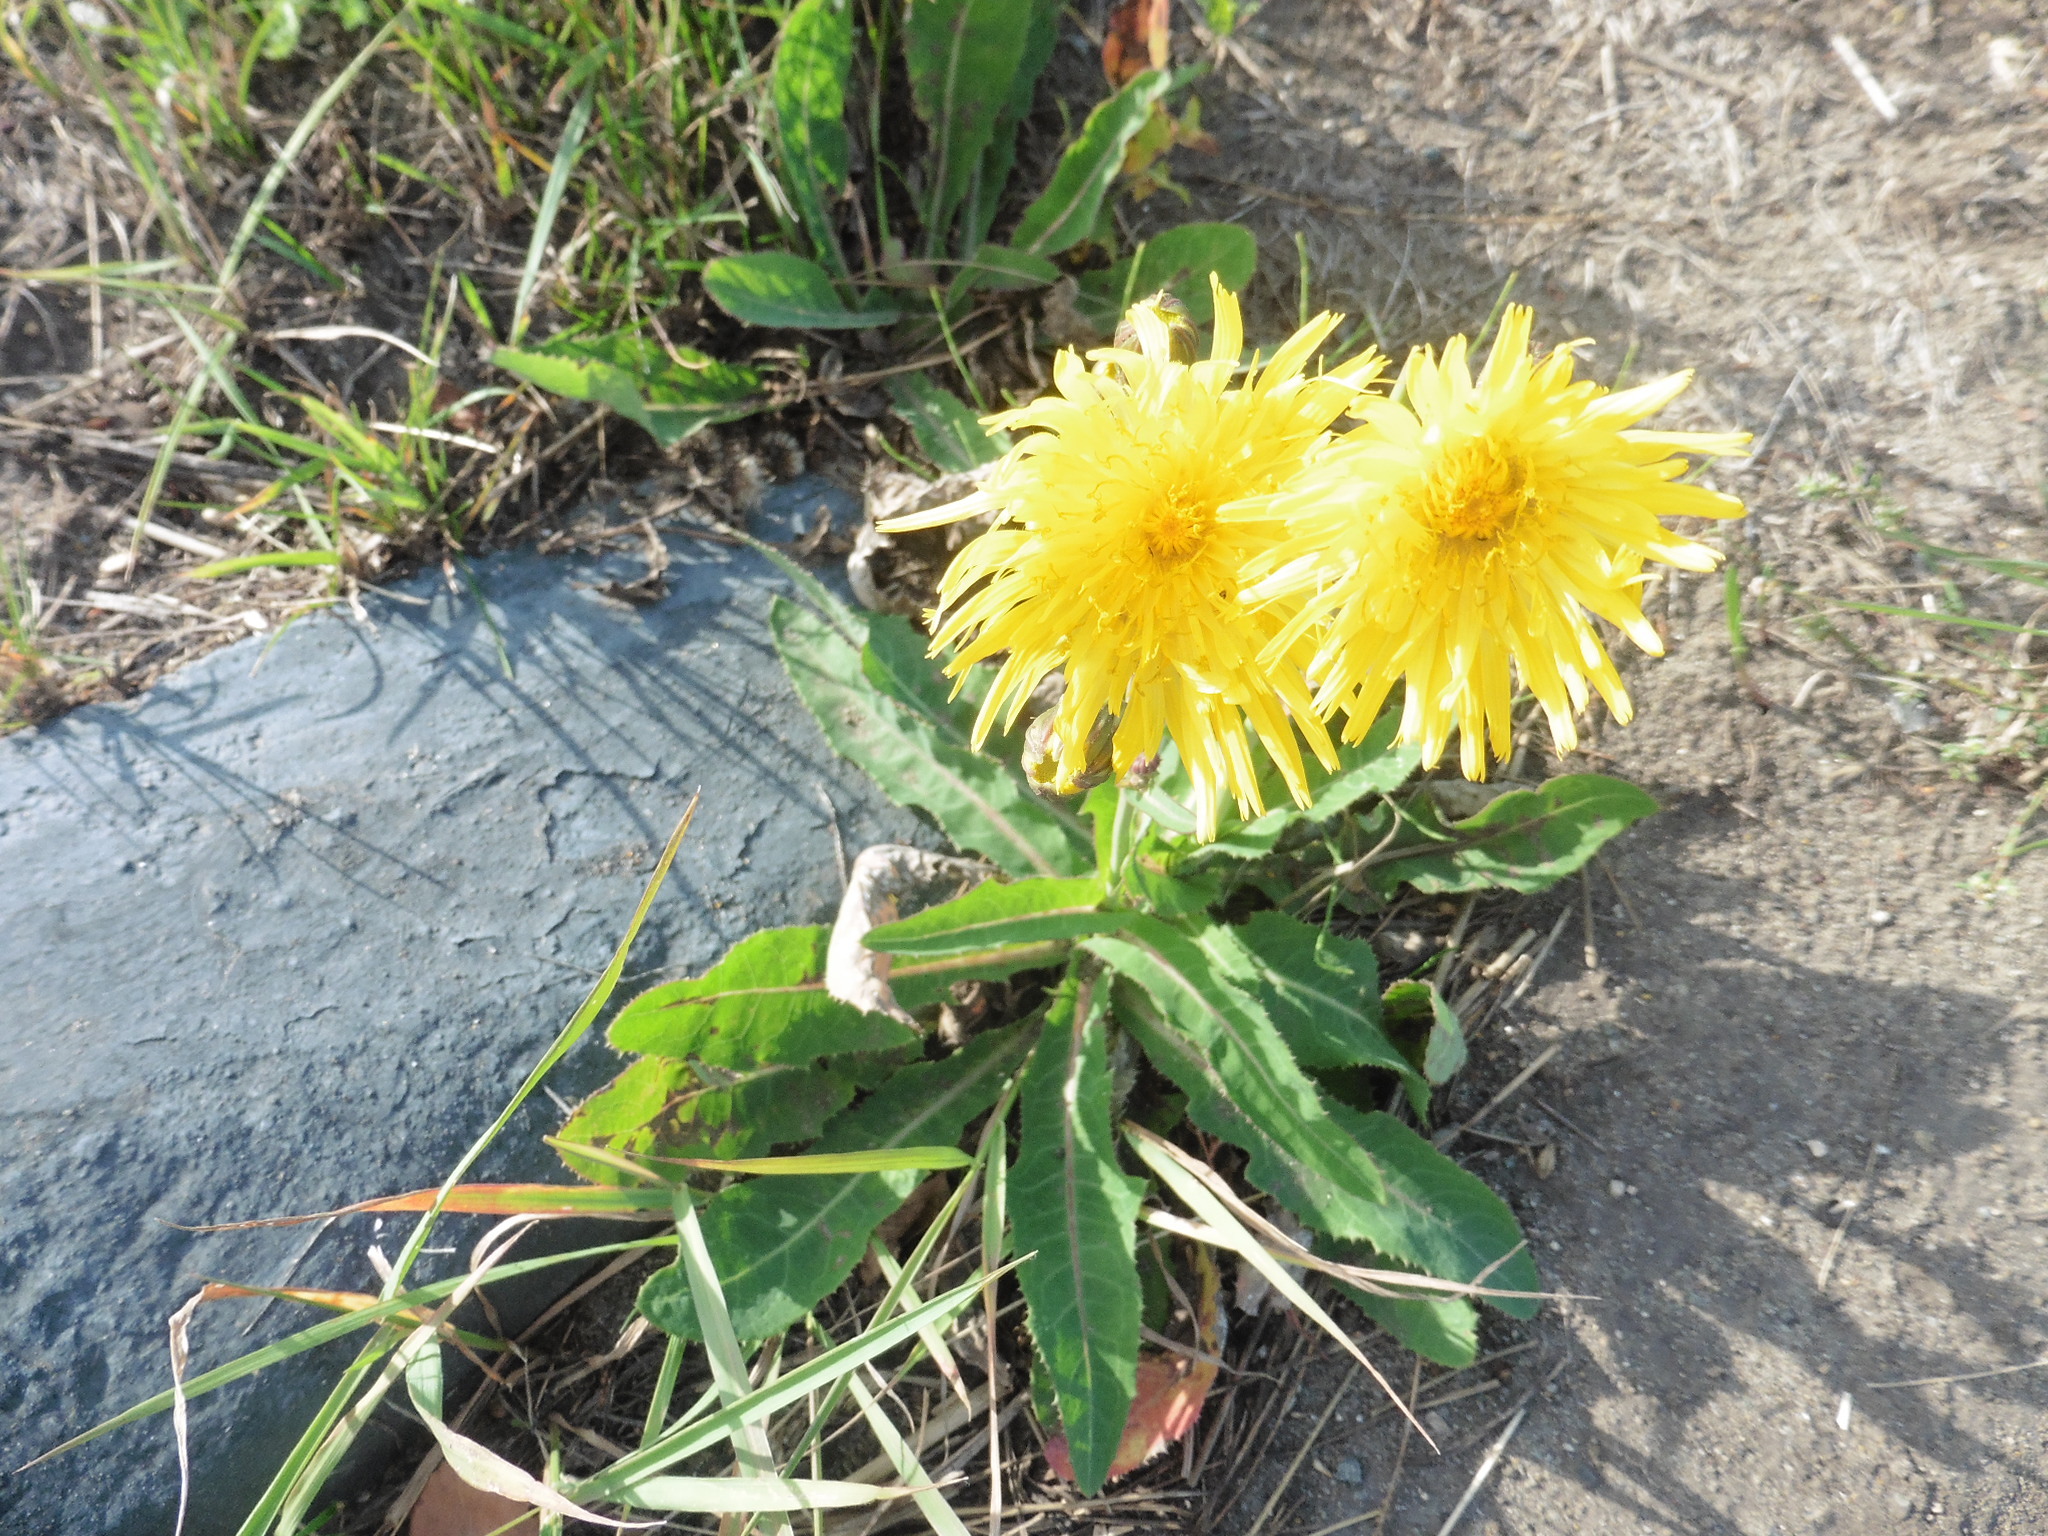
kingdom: Plantae
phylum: Tracheophyta
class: Magnoliopsida
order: Asterales
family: Asteraceae
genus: Sonchus
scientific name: Sonchus arvensis
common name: Perennial sow-thistle
